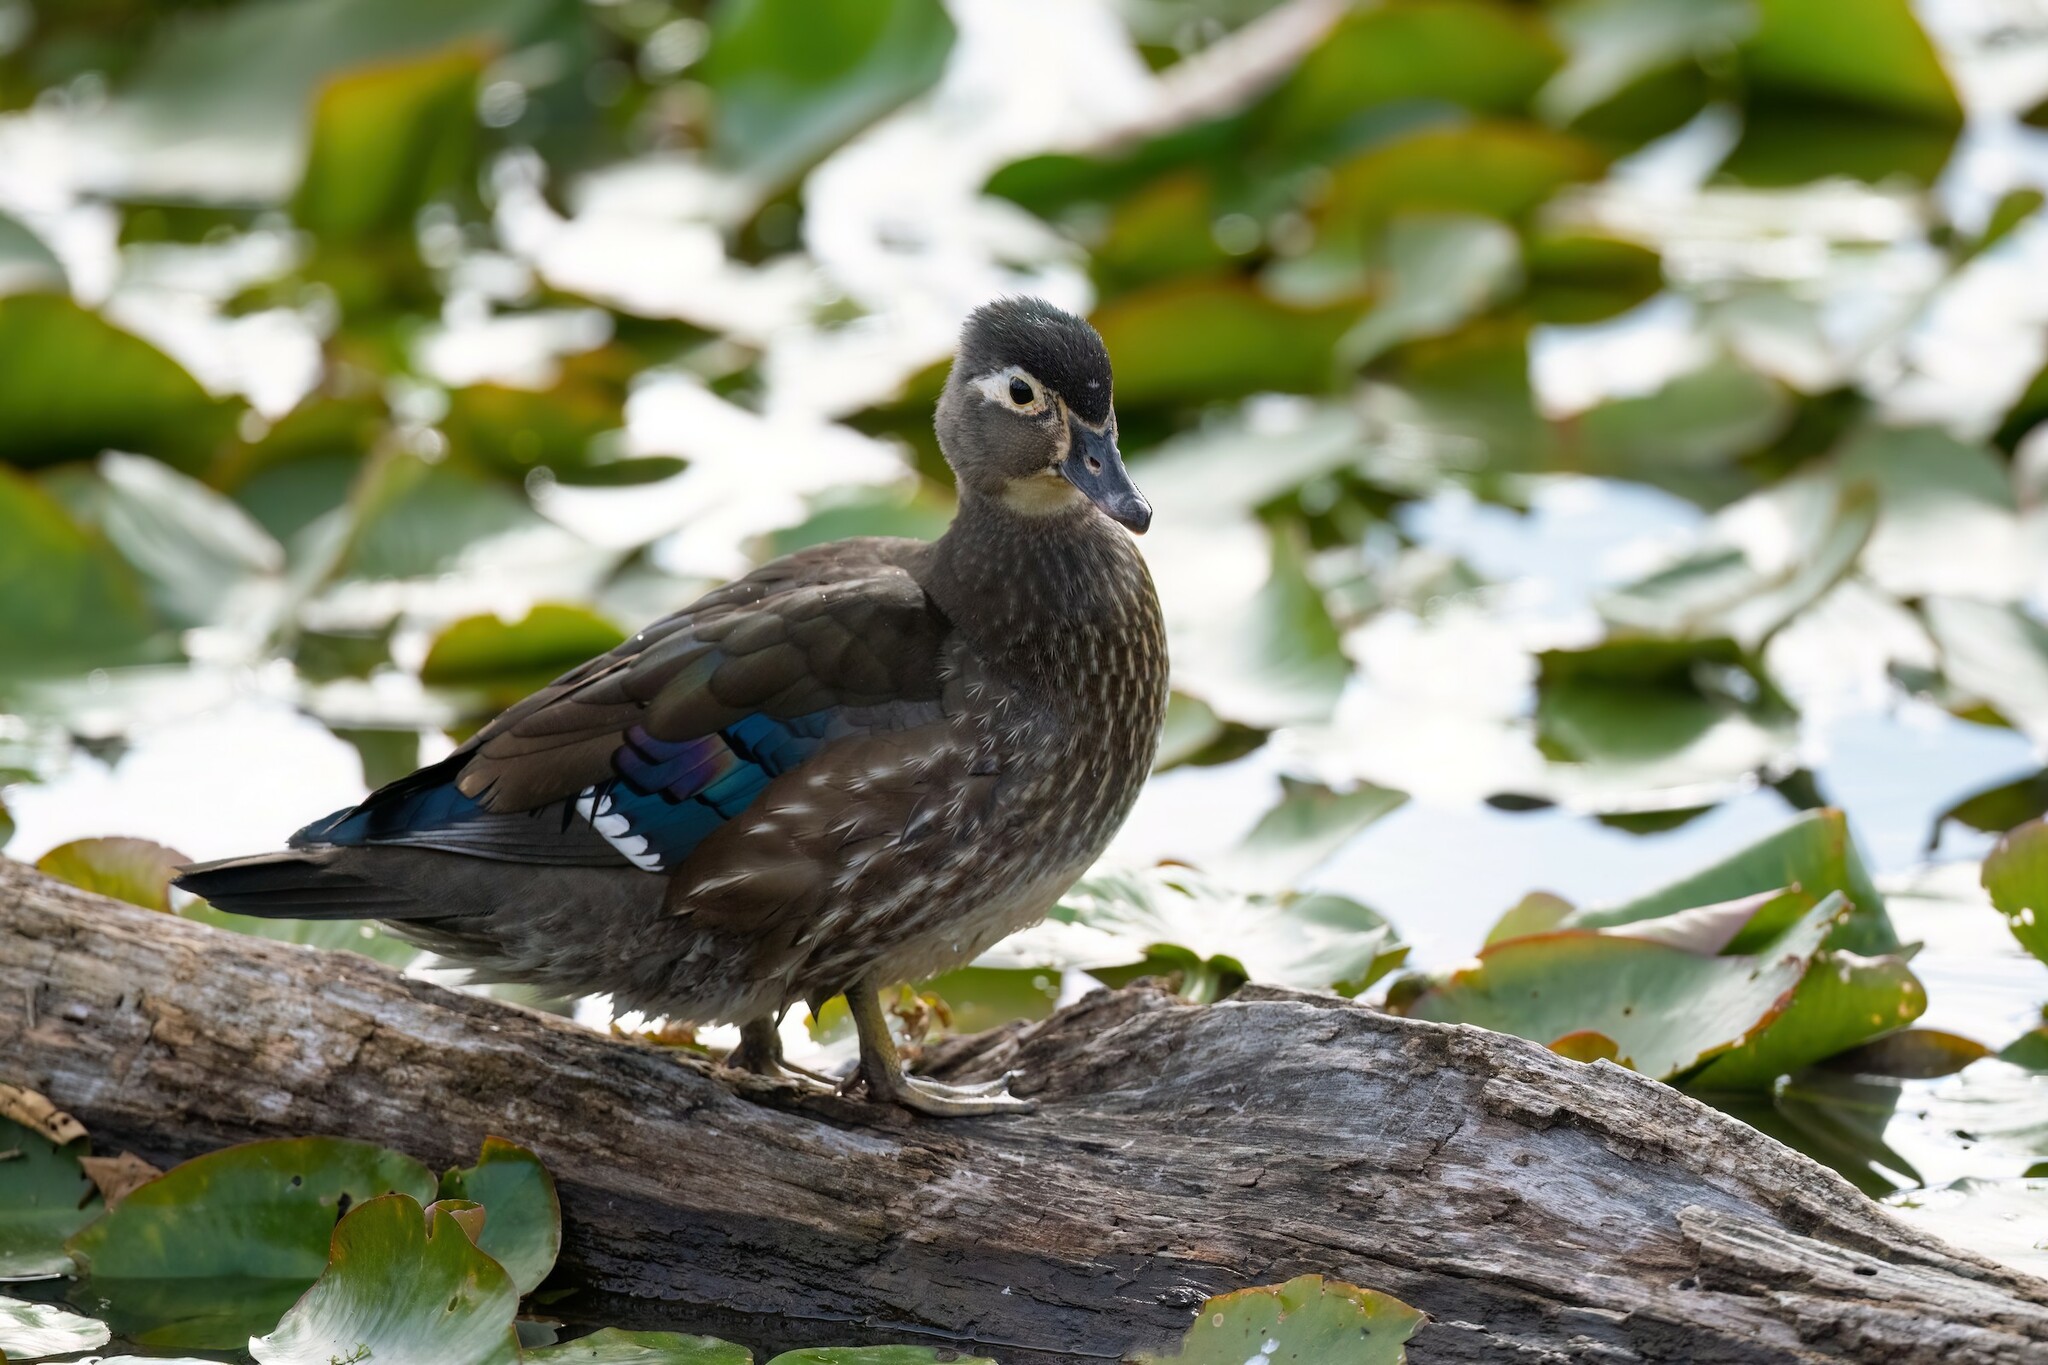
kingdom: Animalia
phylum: Chordata
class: Aves
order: Anseriformes
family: Anatidae
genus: Aix
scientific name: Aix sponsa
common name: Wood duck
